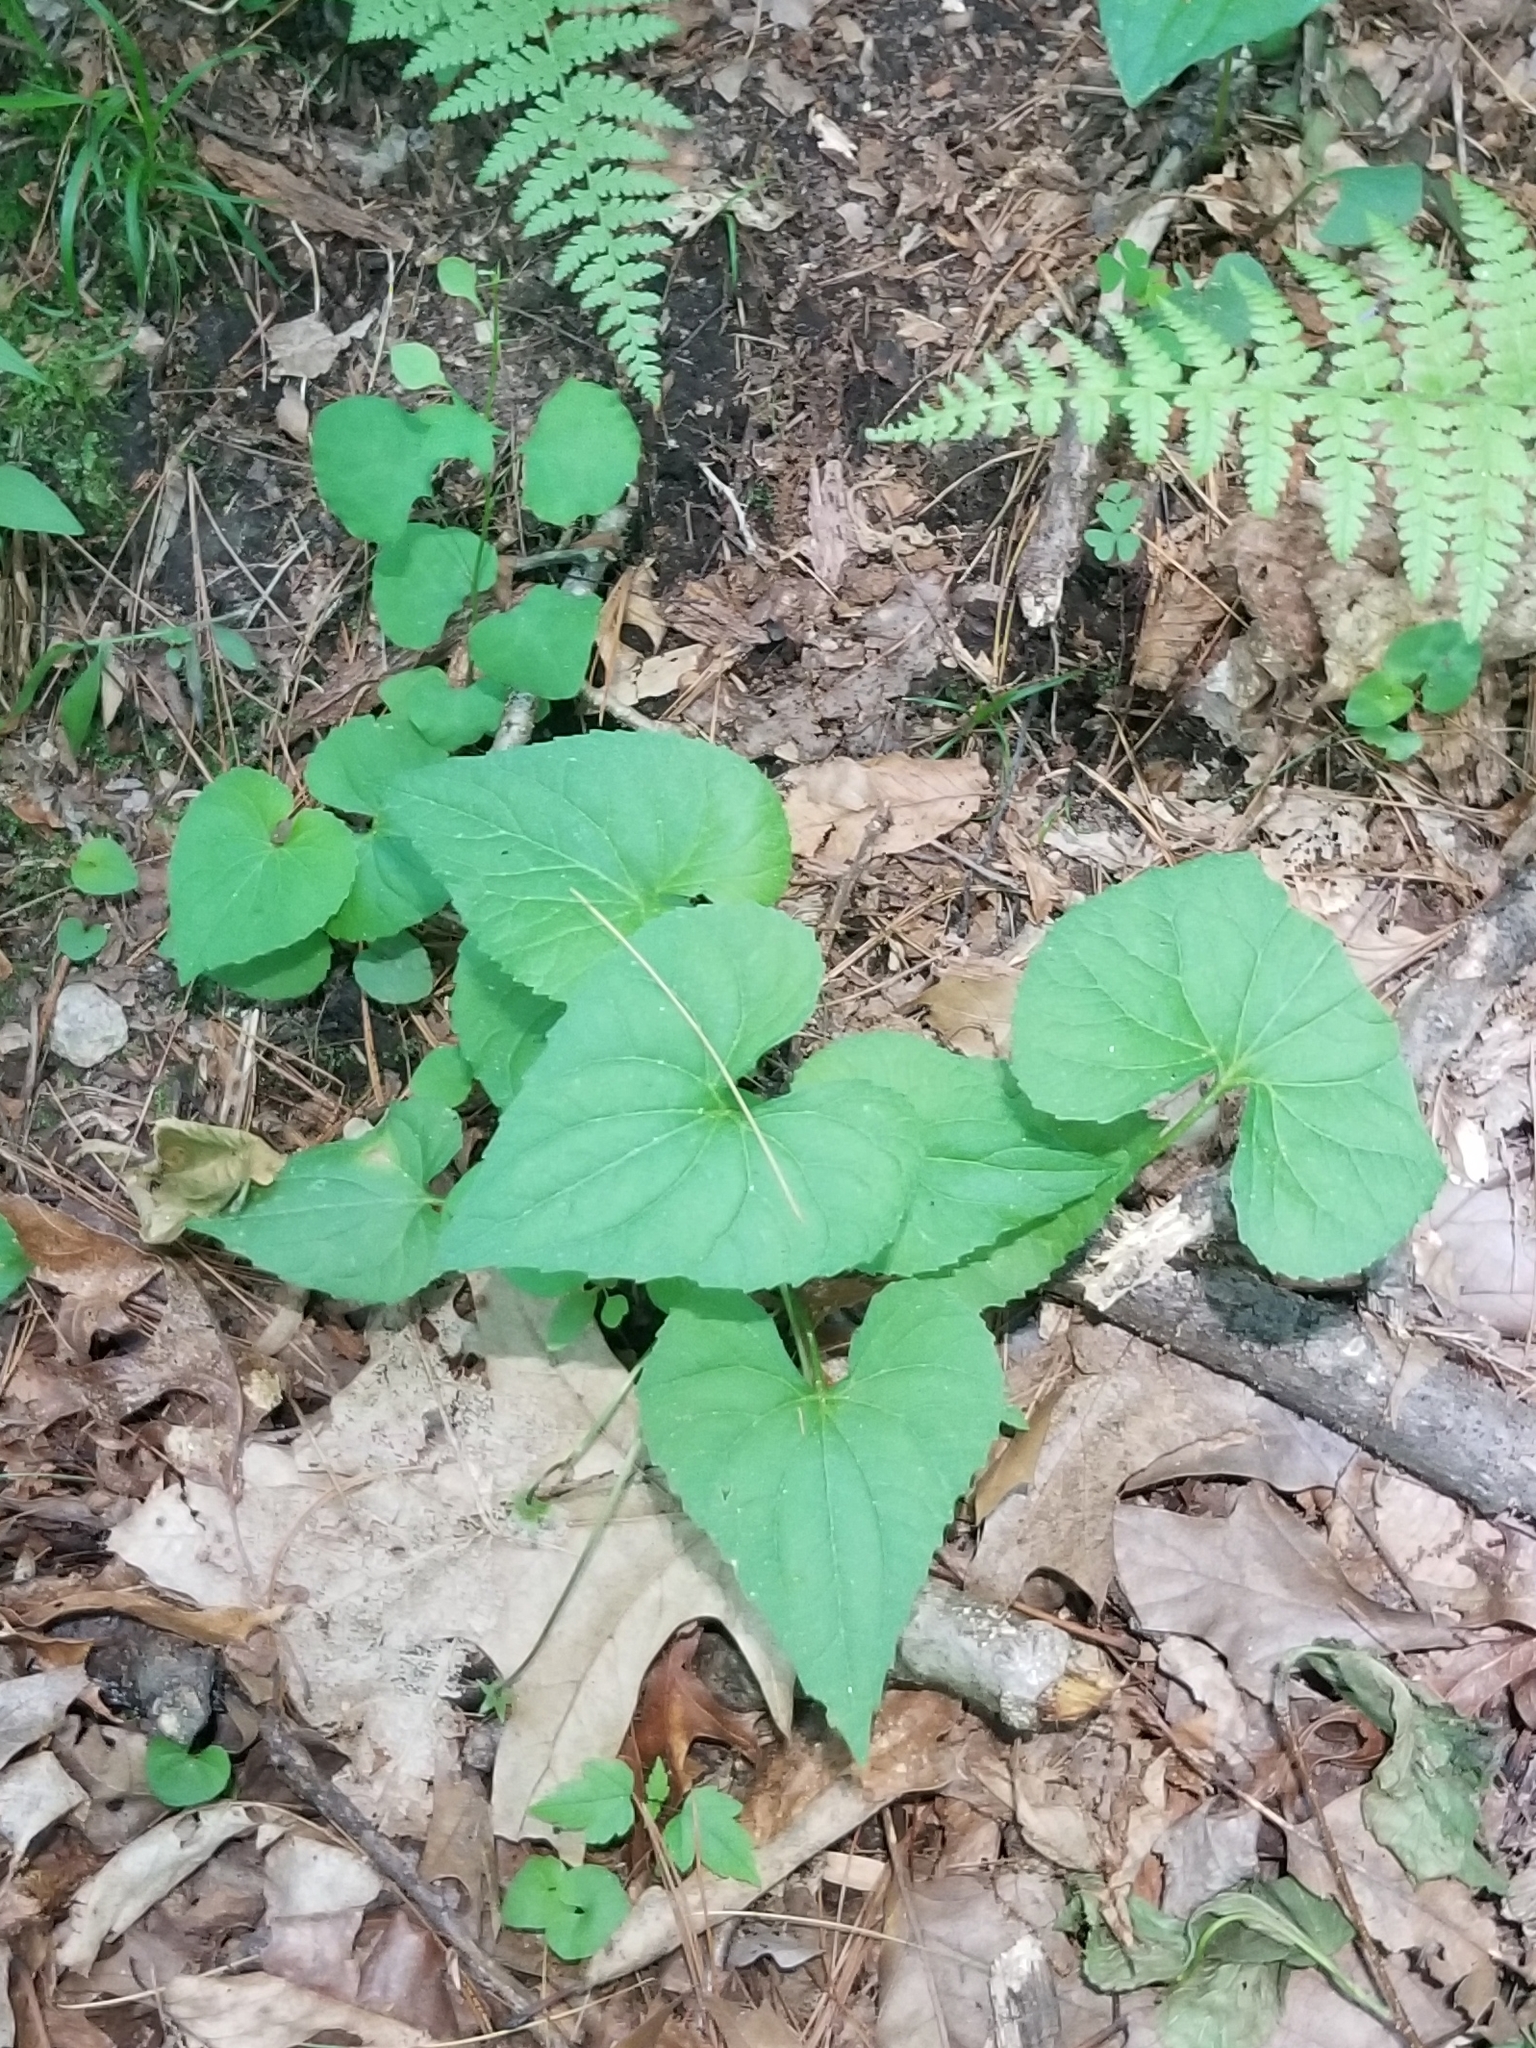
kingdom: Plantae
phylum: Tracheophyta
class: Magnoliopsida
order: Malpighiales
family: Violaceae
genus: Viola
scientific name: Viola sororia
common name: Dooryard violet
